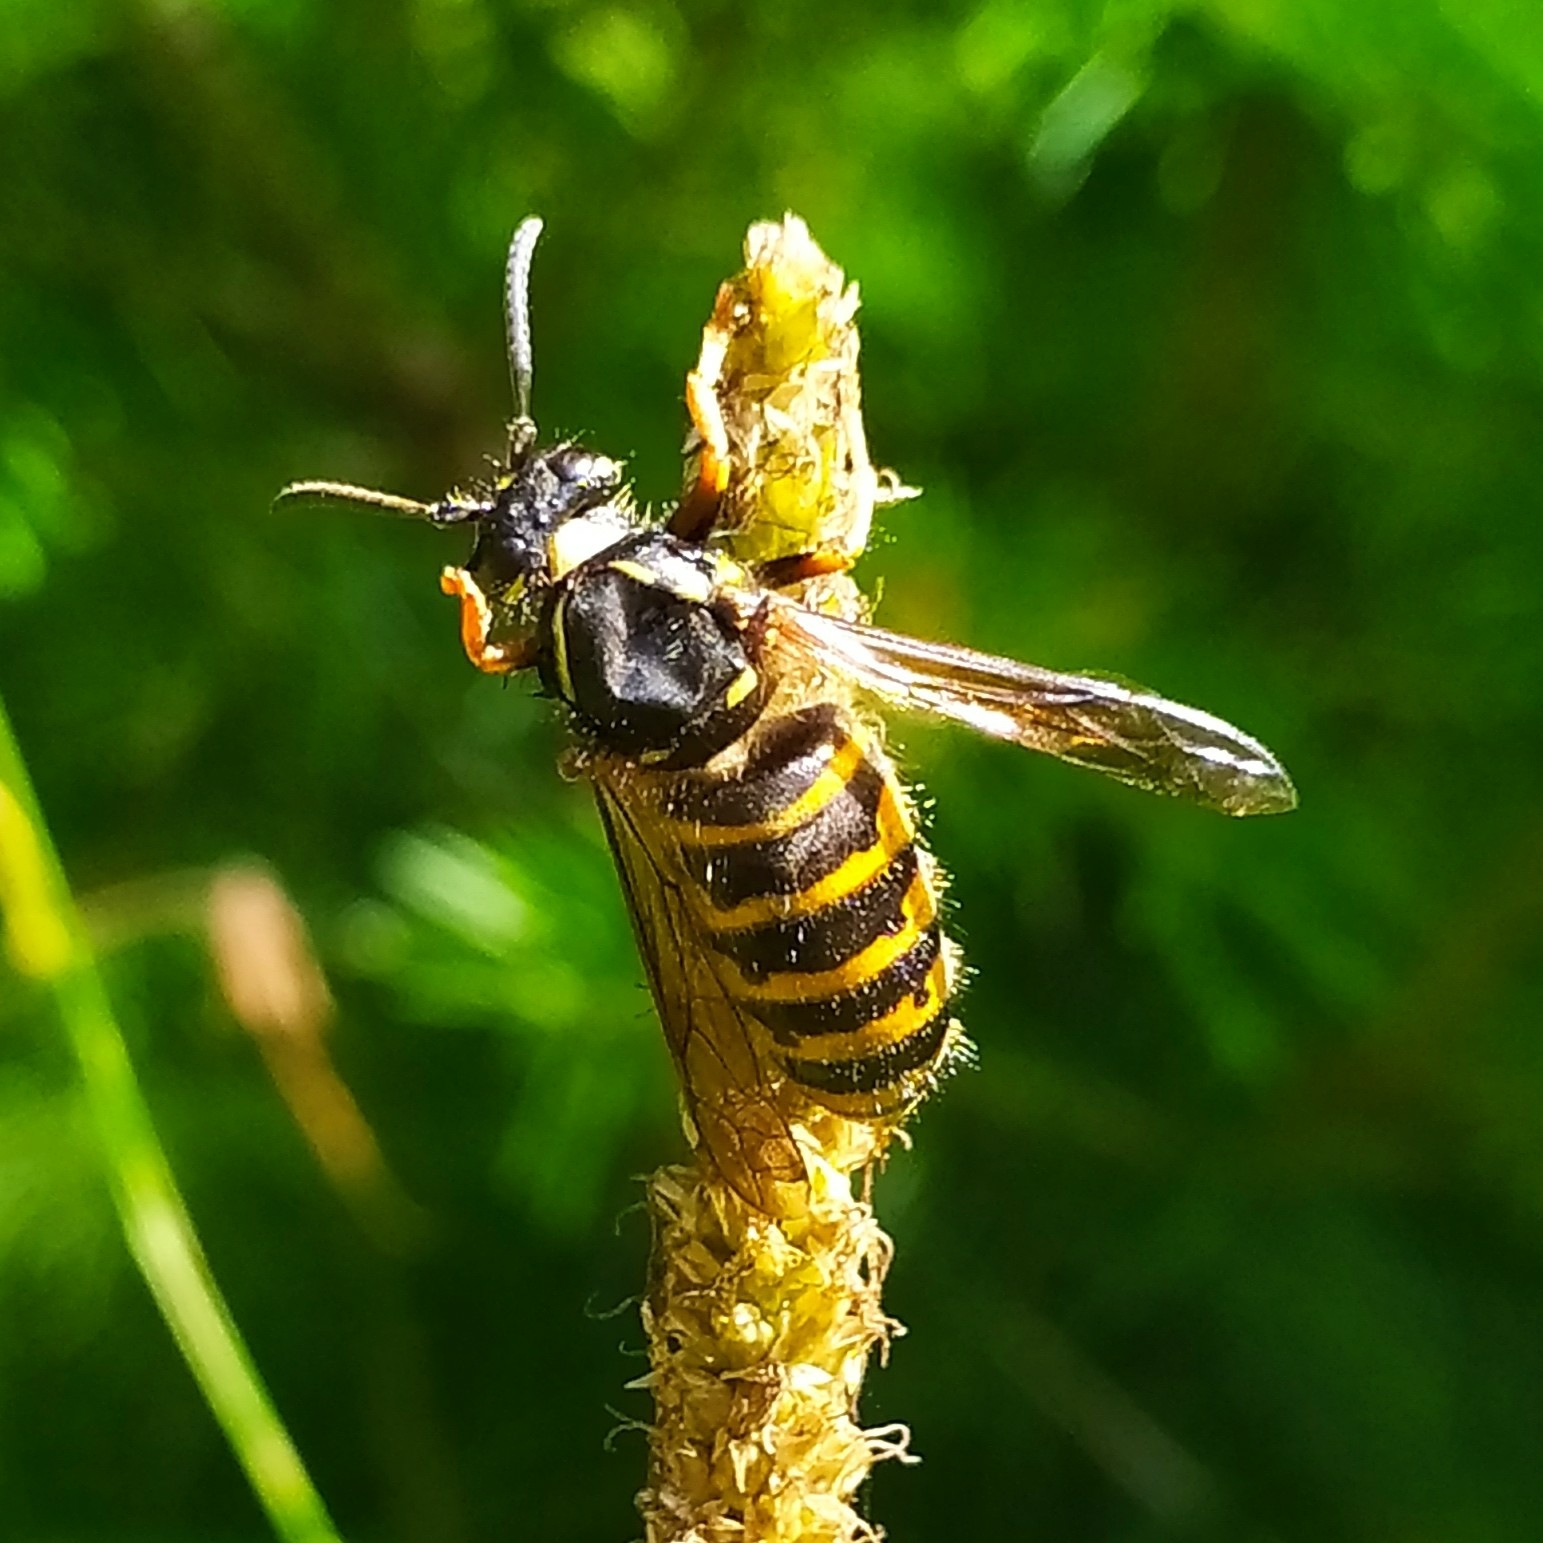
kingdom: Animalia
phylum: Arthropoda
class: Insecta
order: Hymenoptera
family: Vespidae
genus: Dolichovespula
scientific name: Dolichovespula saxonica
